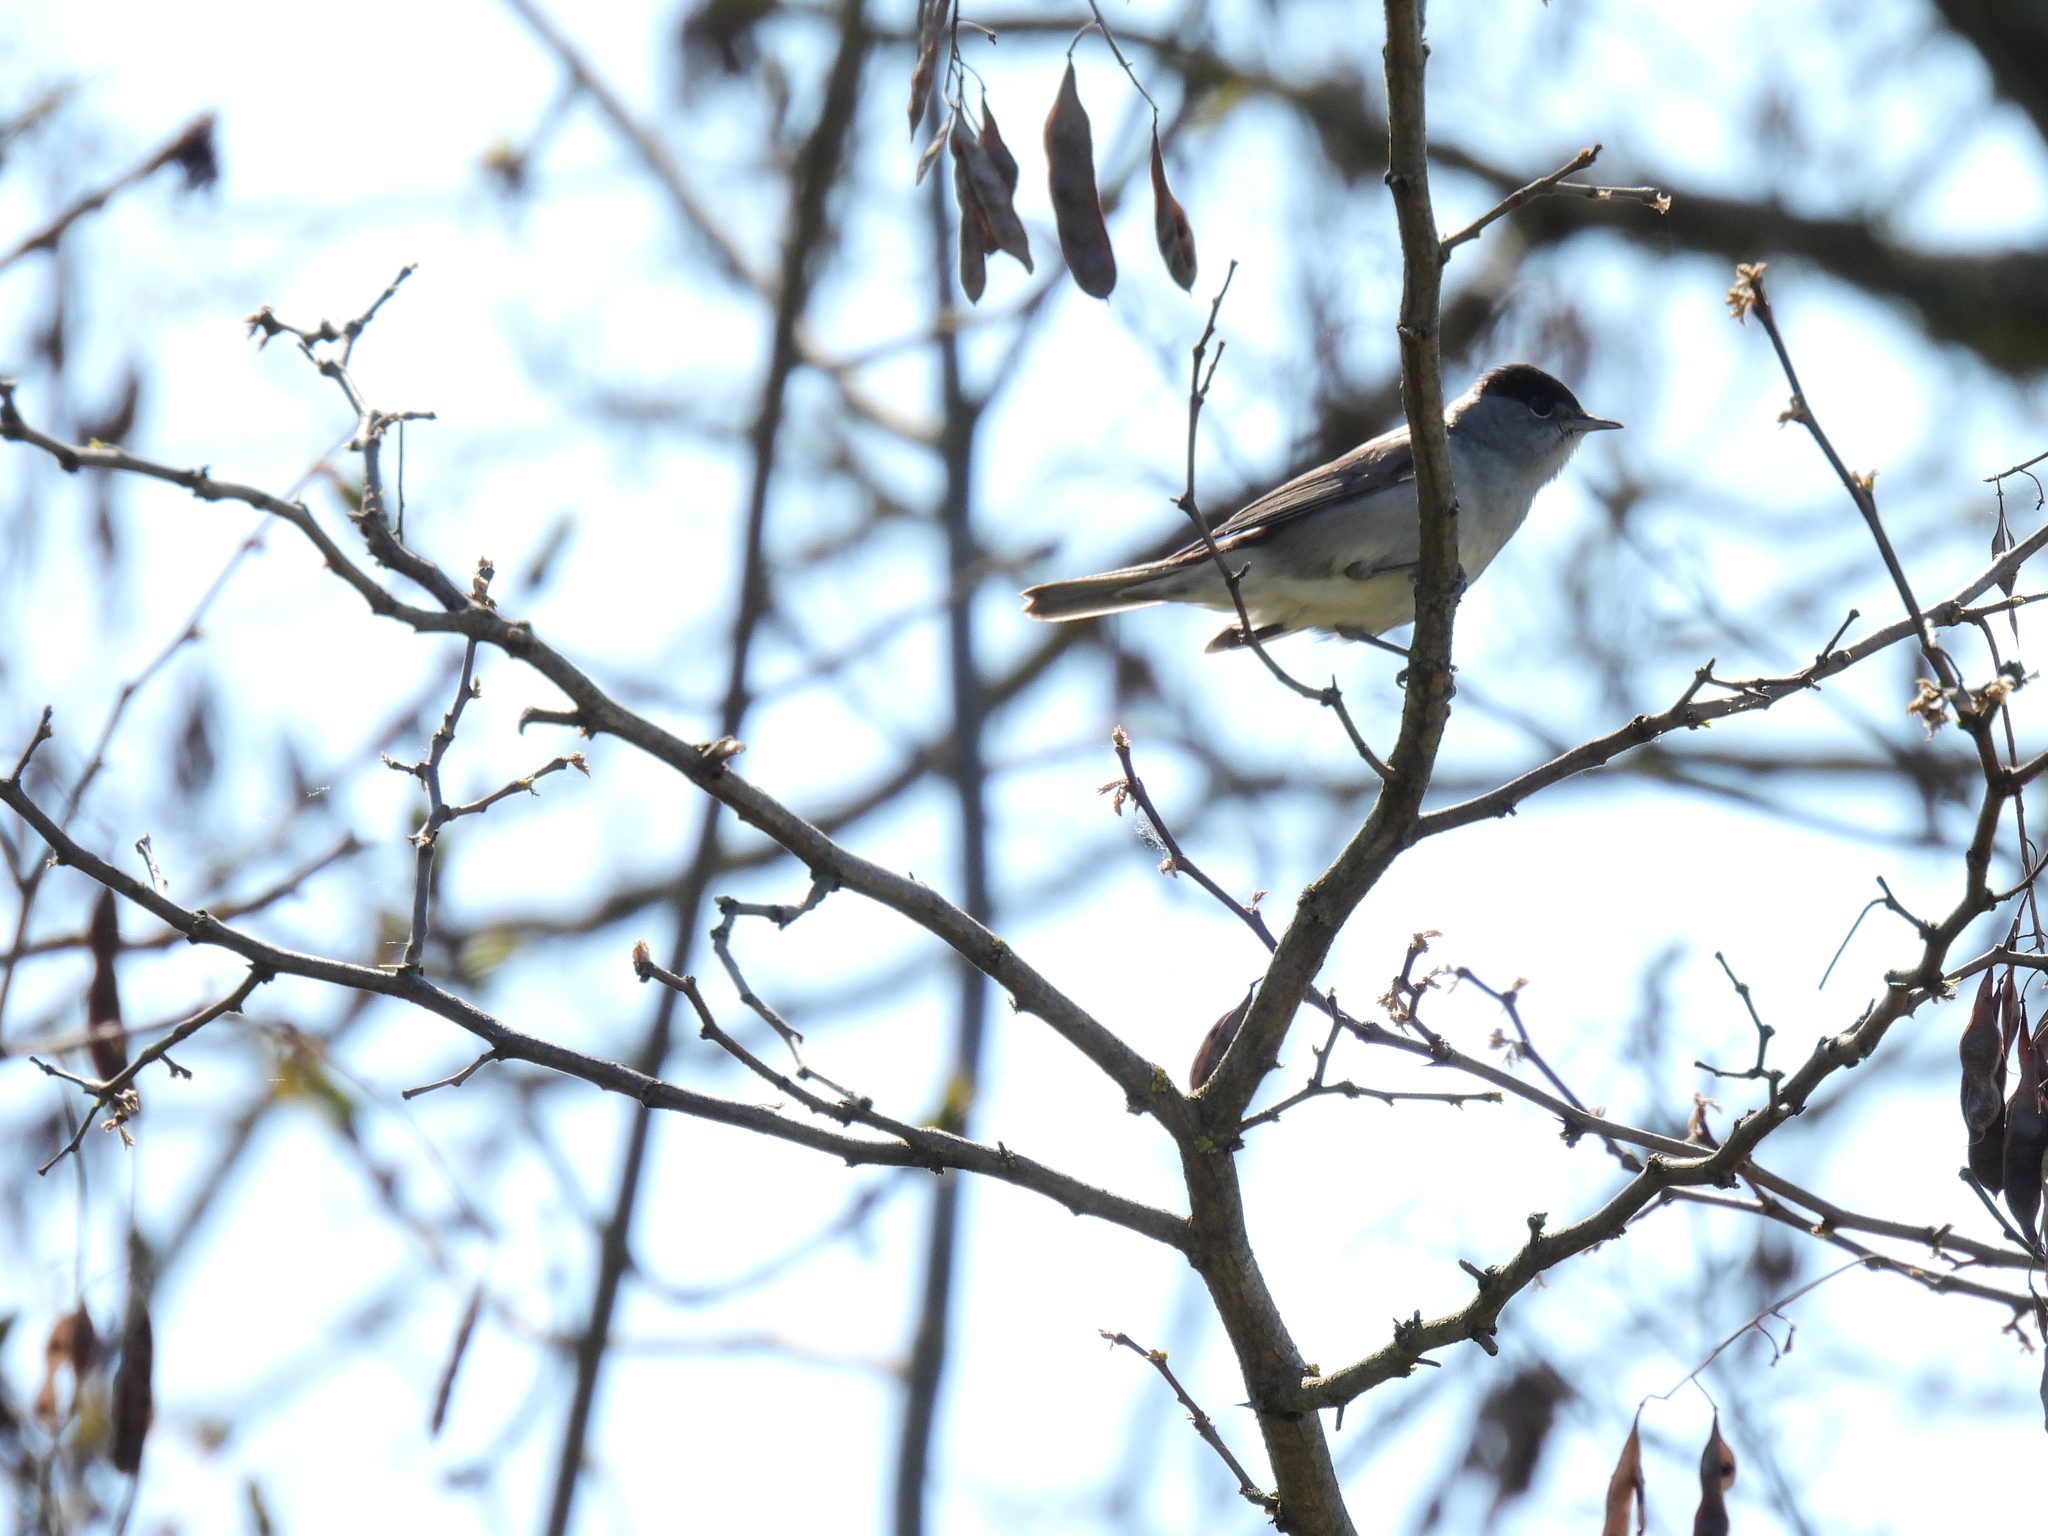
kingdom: Animalia
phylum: Chordata
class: Aves
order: Passeriformes
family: Sylviidae
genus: Sylvia
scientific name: Sylvia atricapilla
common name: Eurasian blackcap
